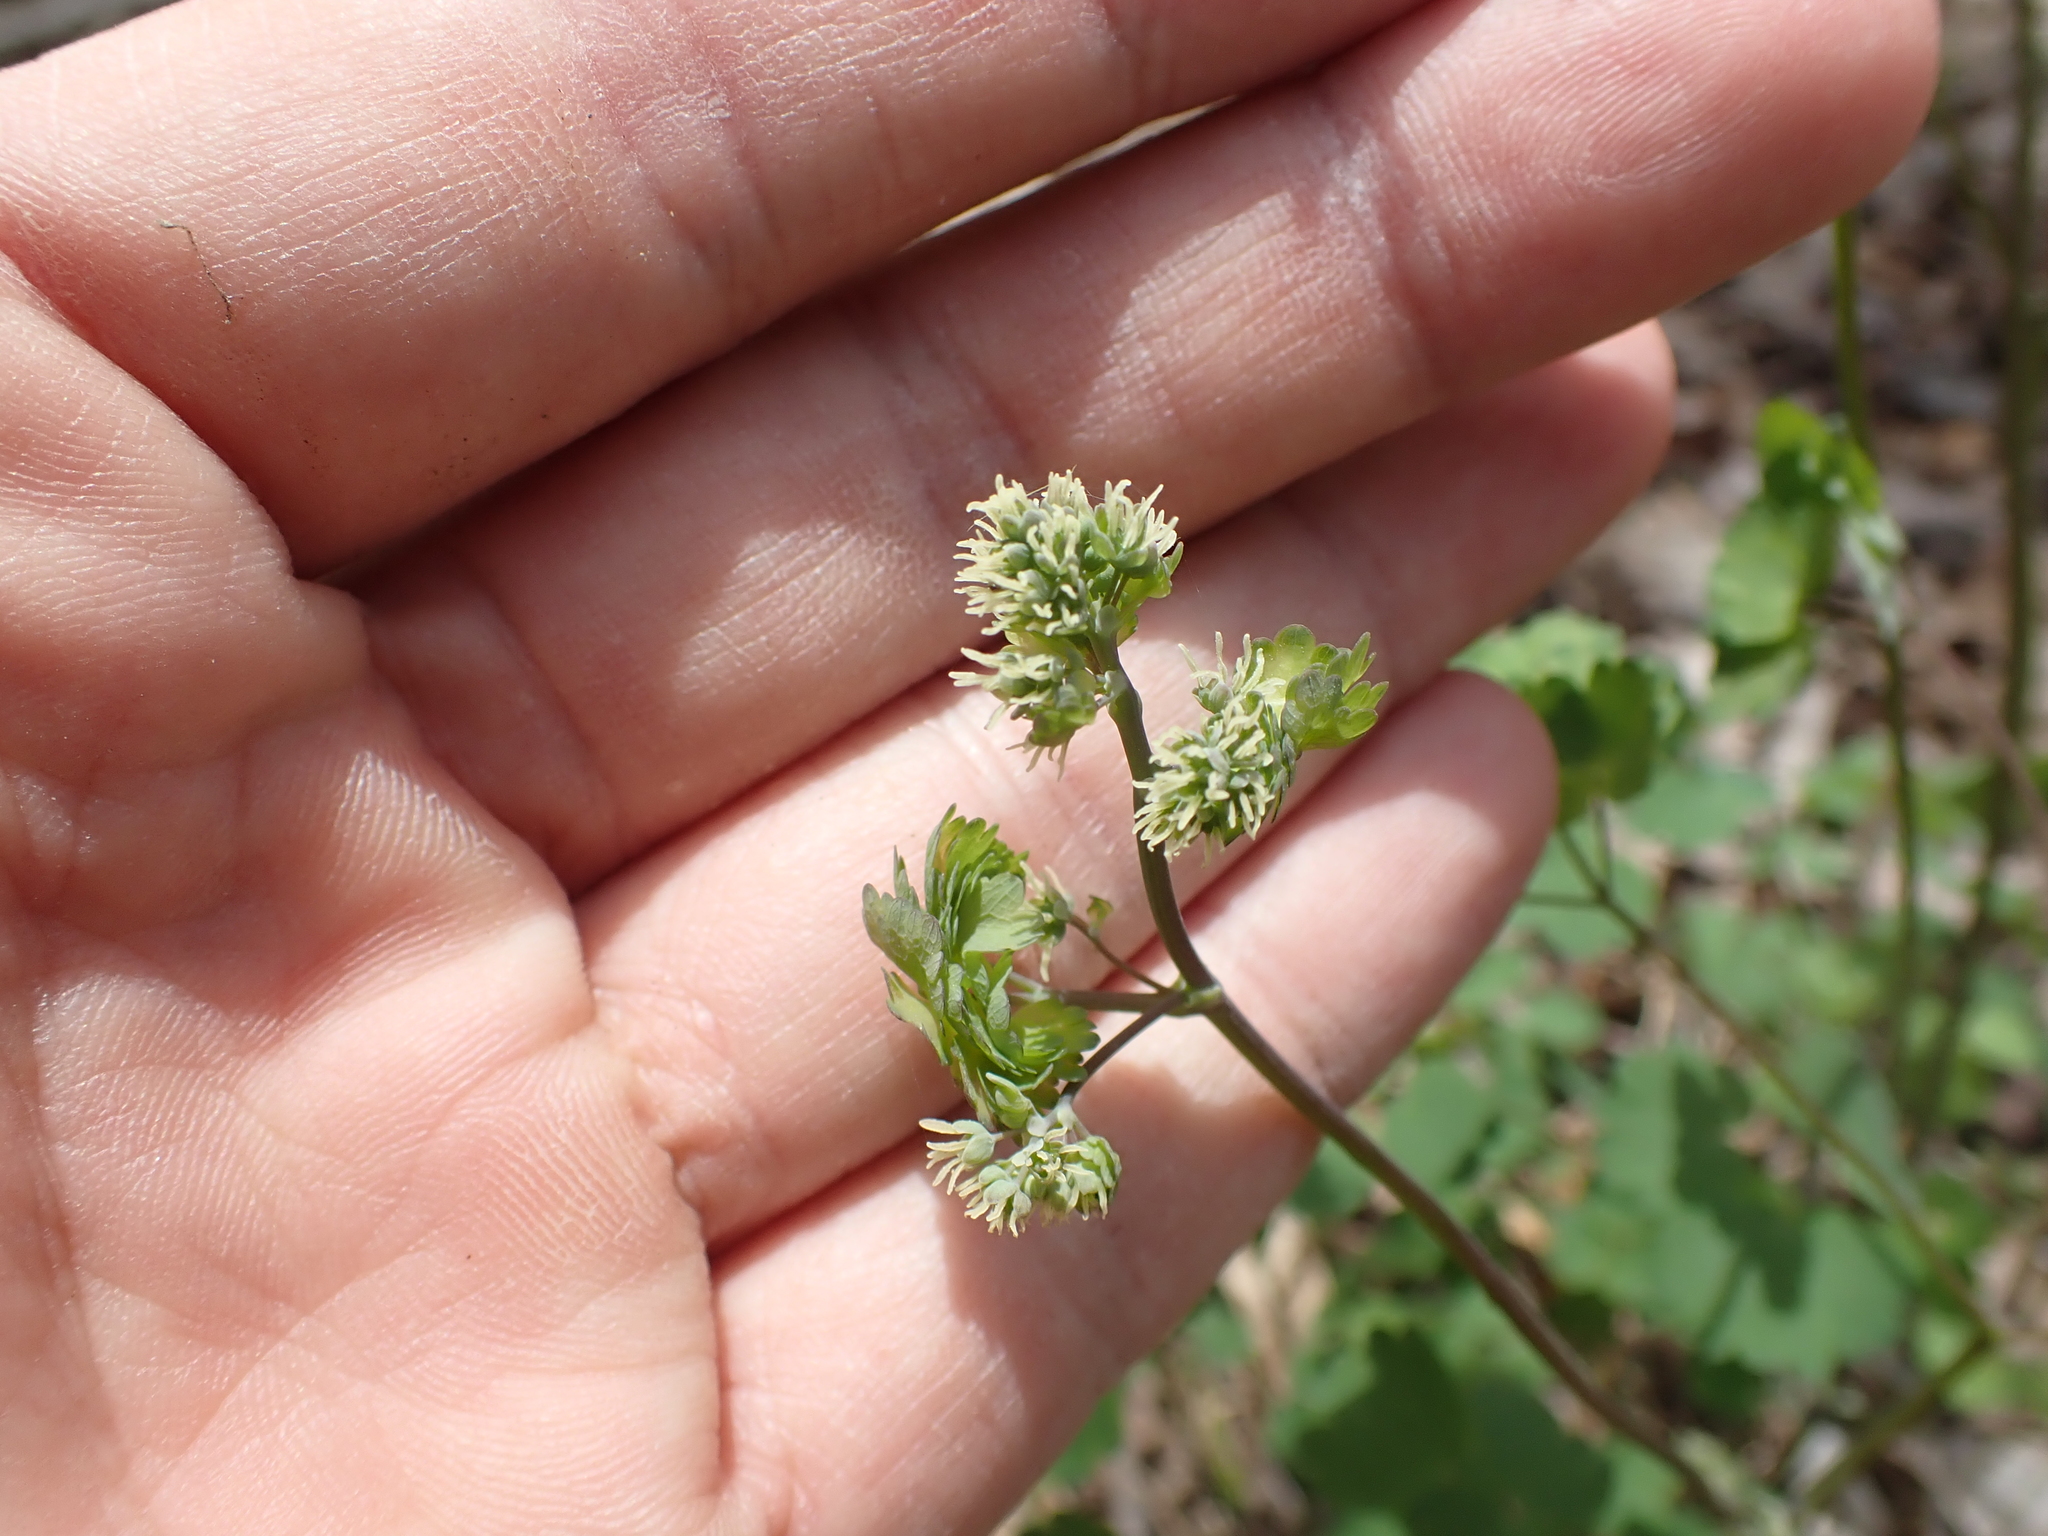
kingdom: Plantae
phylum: Tracheophyta
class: Magnoliopsida
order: Ranunculales
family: Ranunculaceae
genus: Thalictrum
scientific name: Thalictrum dioicum
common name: Early meadow-rue
